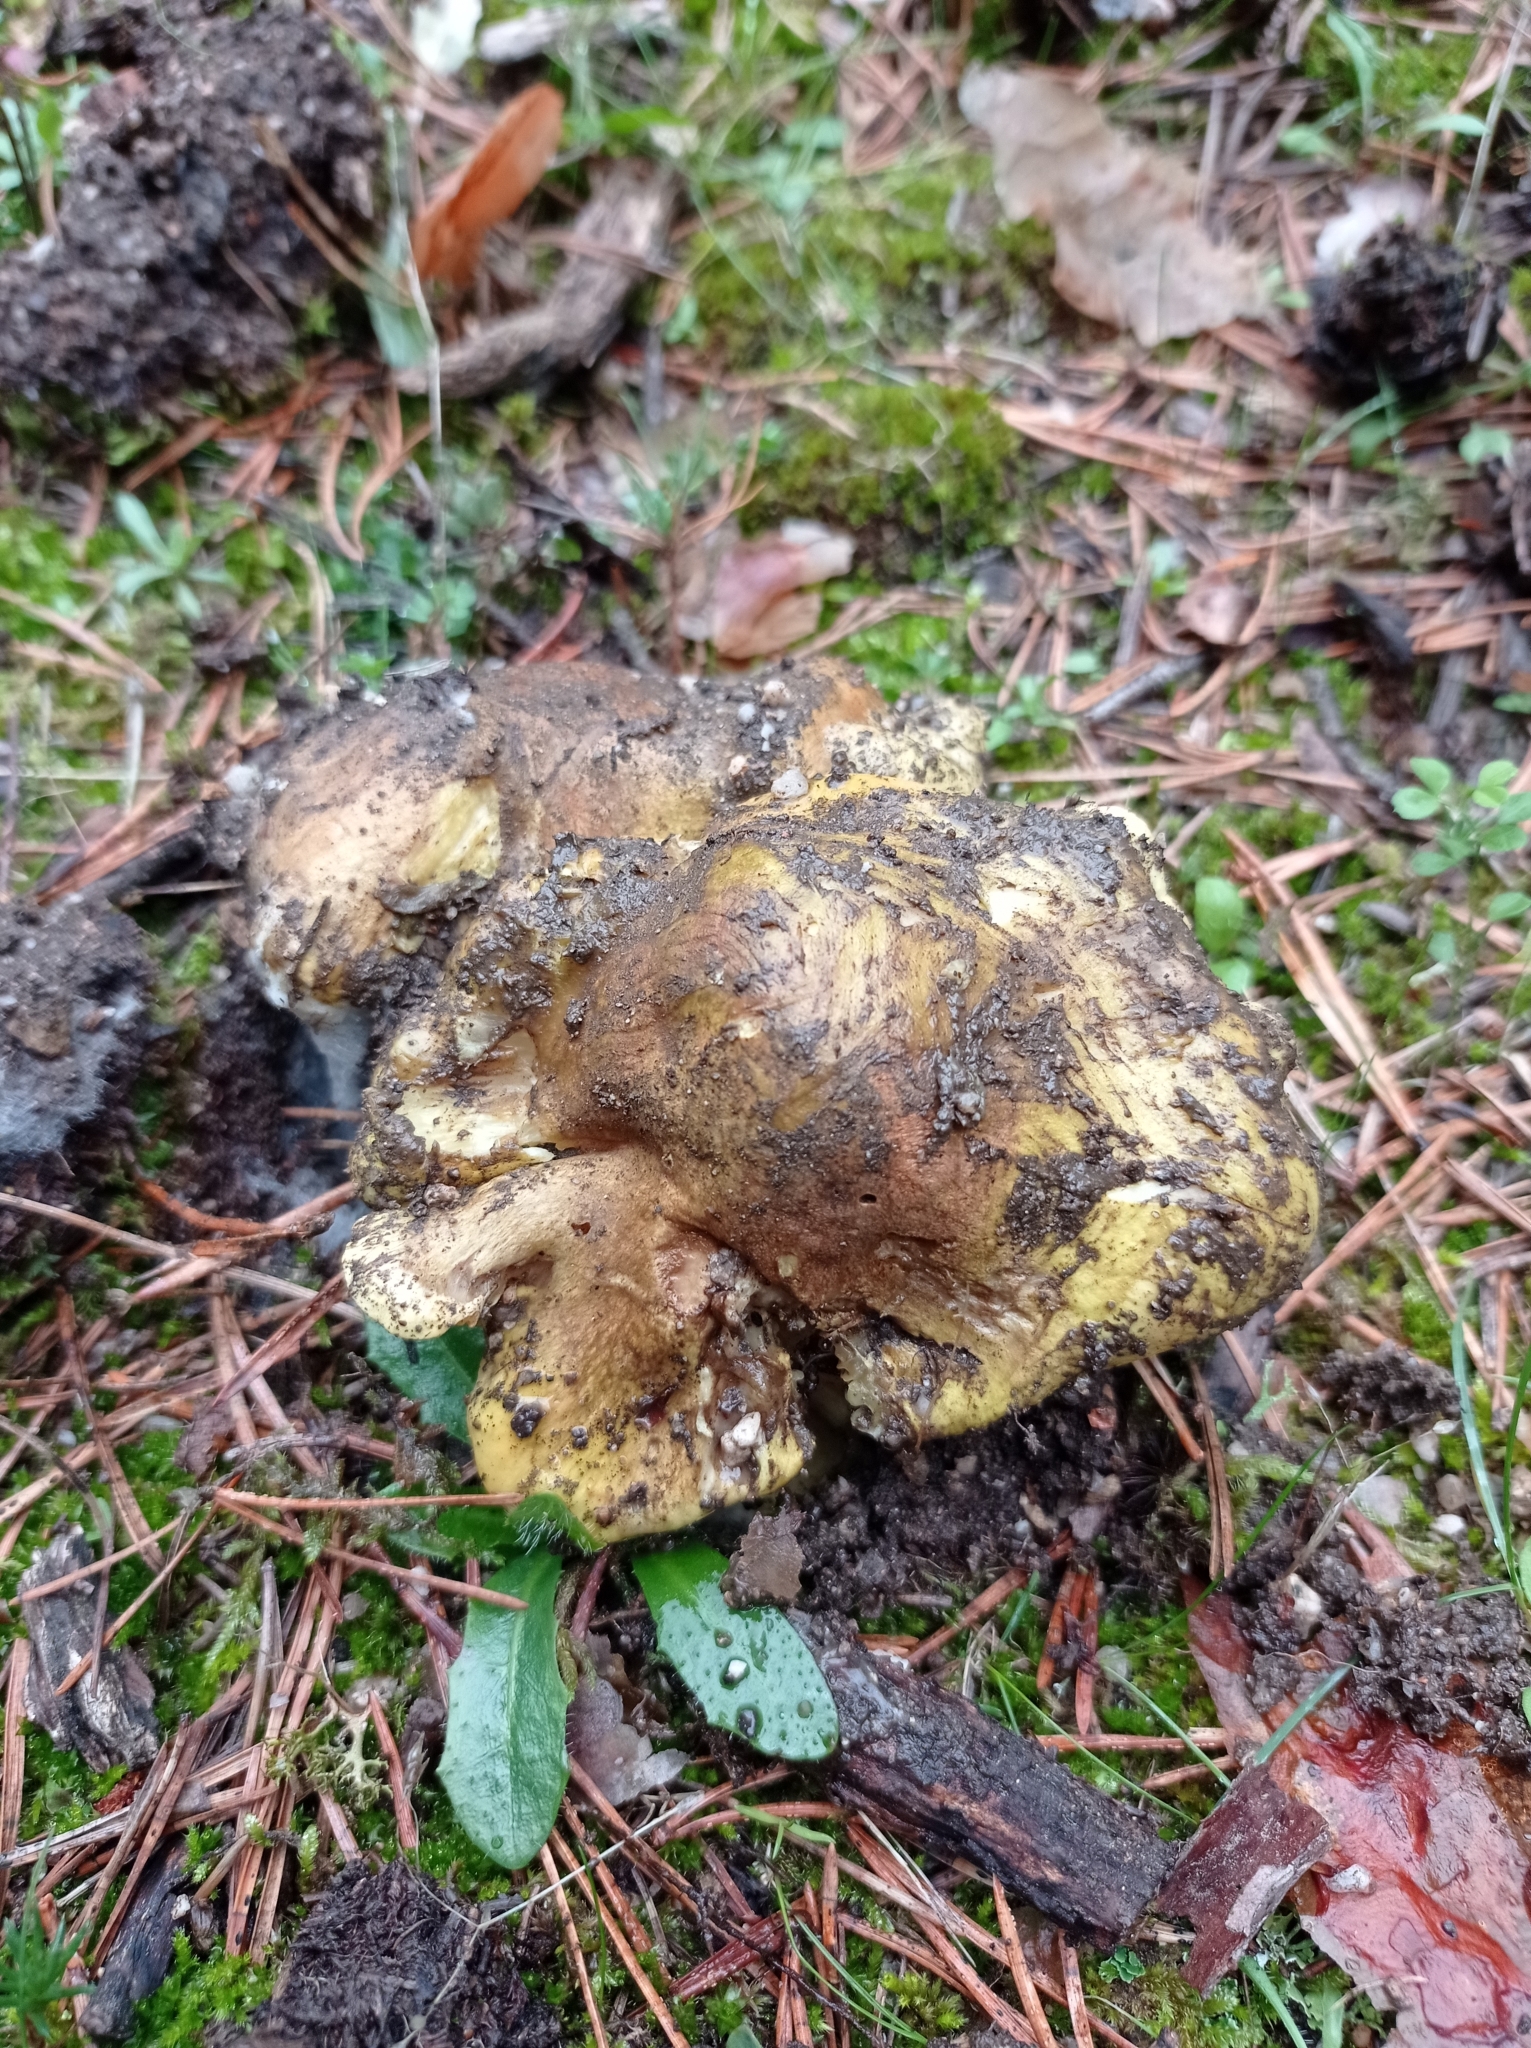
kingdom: Fungi
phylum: Basidiomycota
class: Agaricomycetes
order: Agaricales
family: Tricholomataceae
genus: Tricholoma
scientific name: Tricholoma equestre
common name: Yellow knight
